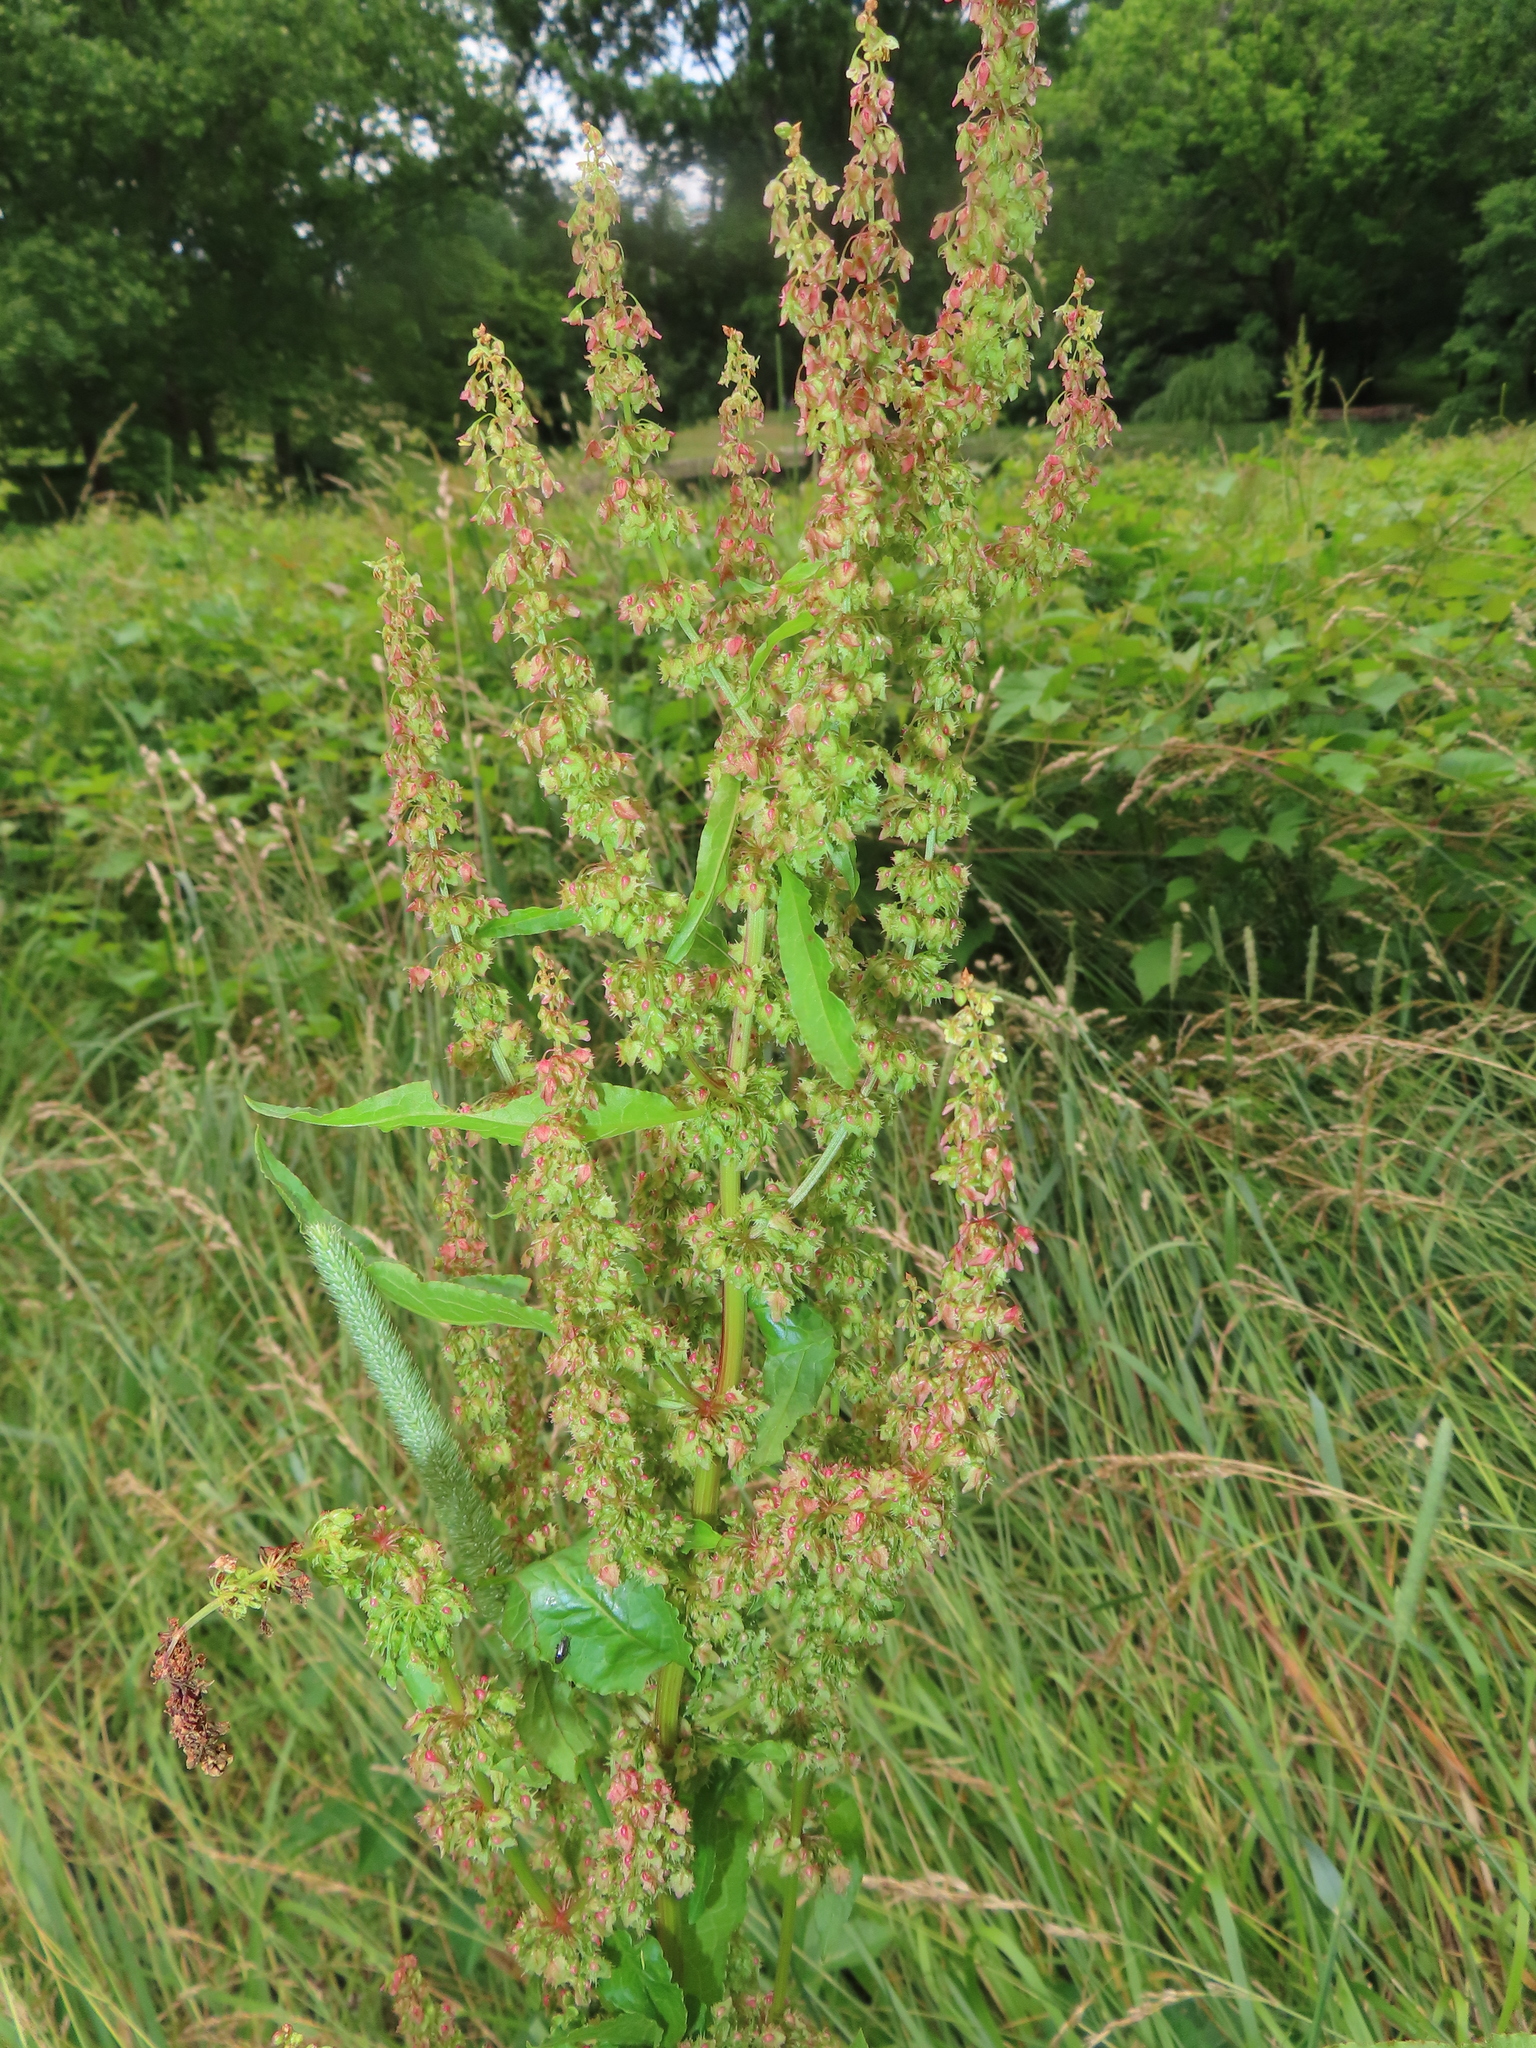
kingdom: Plantae
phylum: Tracheophyta
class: Magnoliopsida
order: Caryophyllales
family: Polygonaceae
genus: Rumex
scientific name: Rumex obtusifolius
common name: Bitter dock
